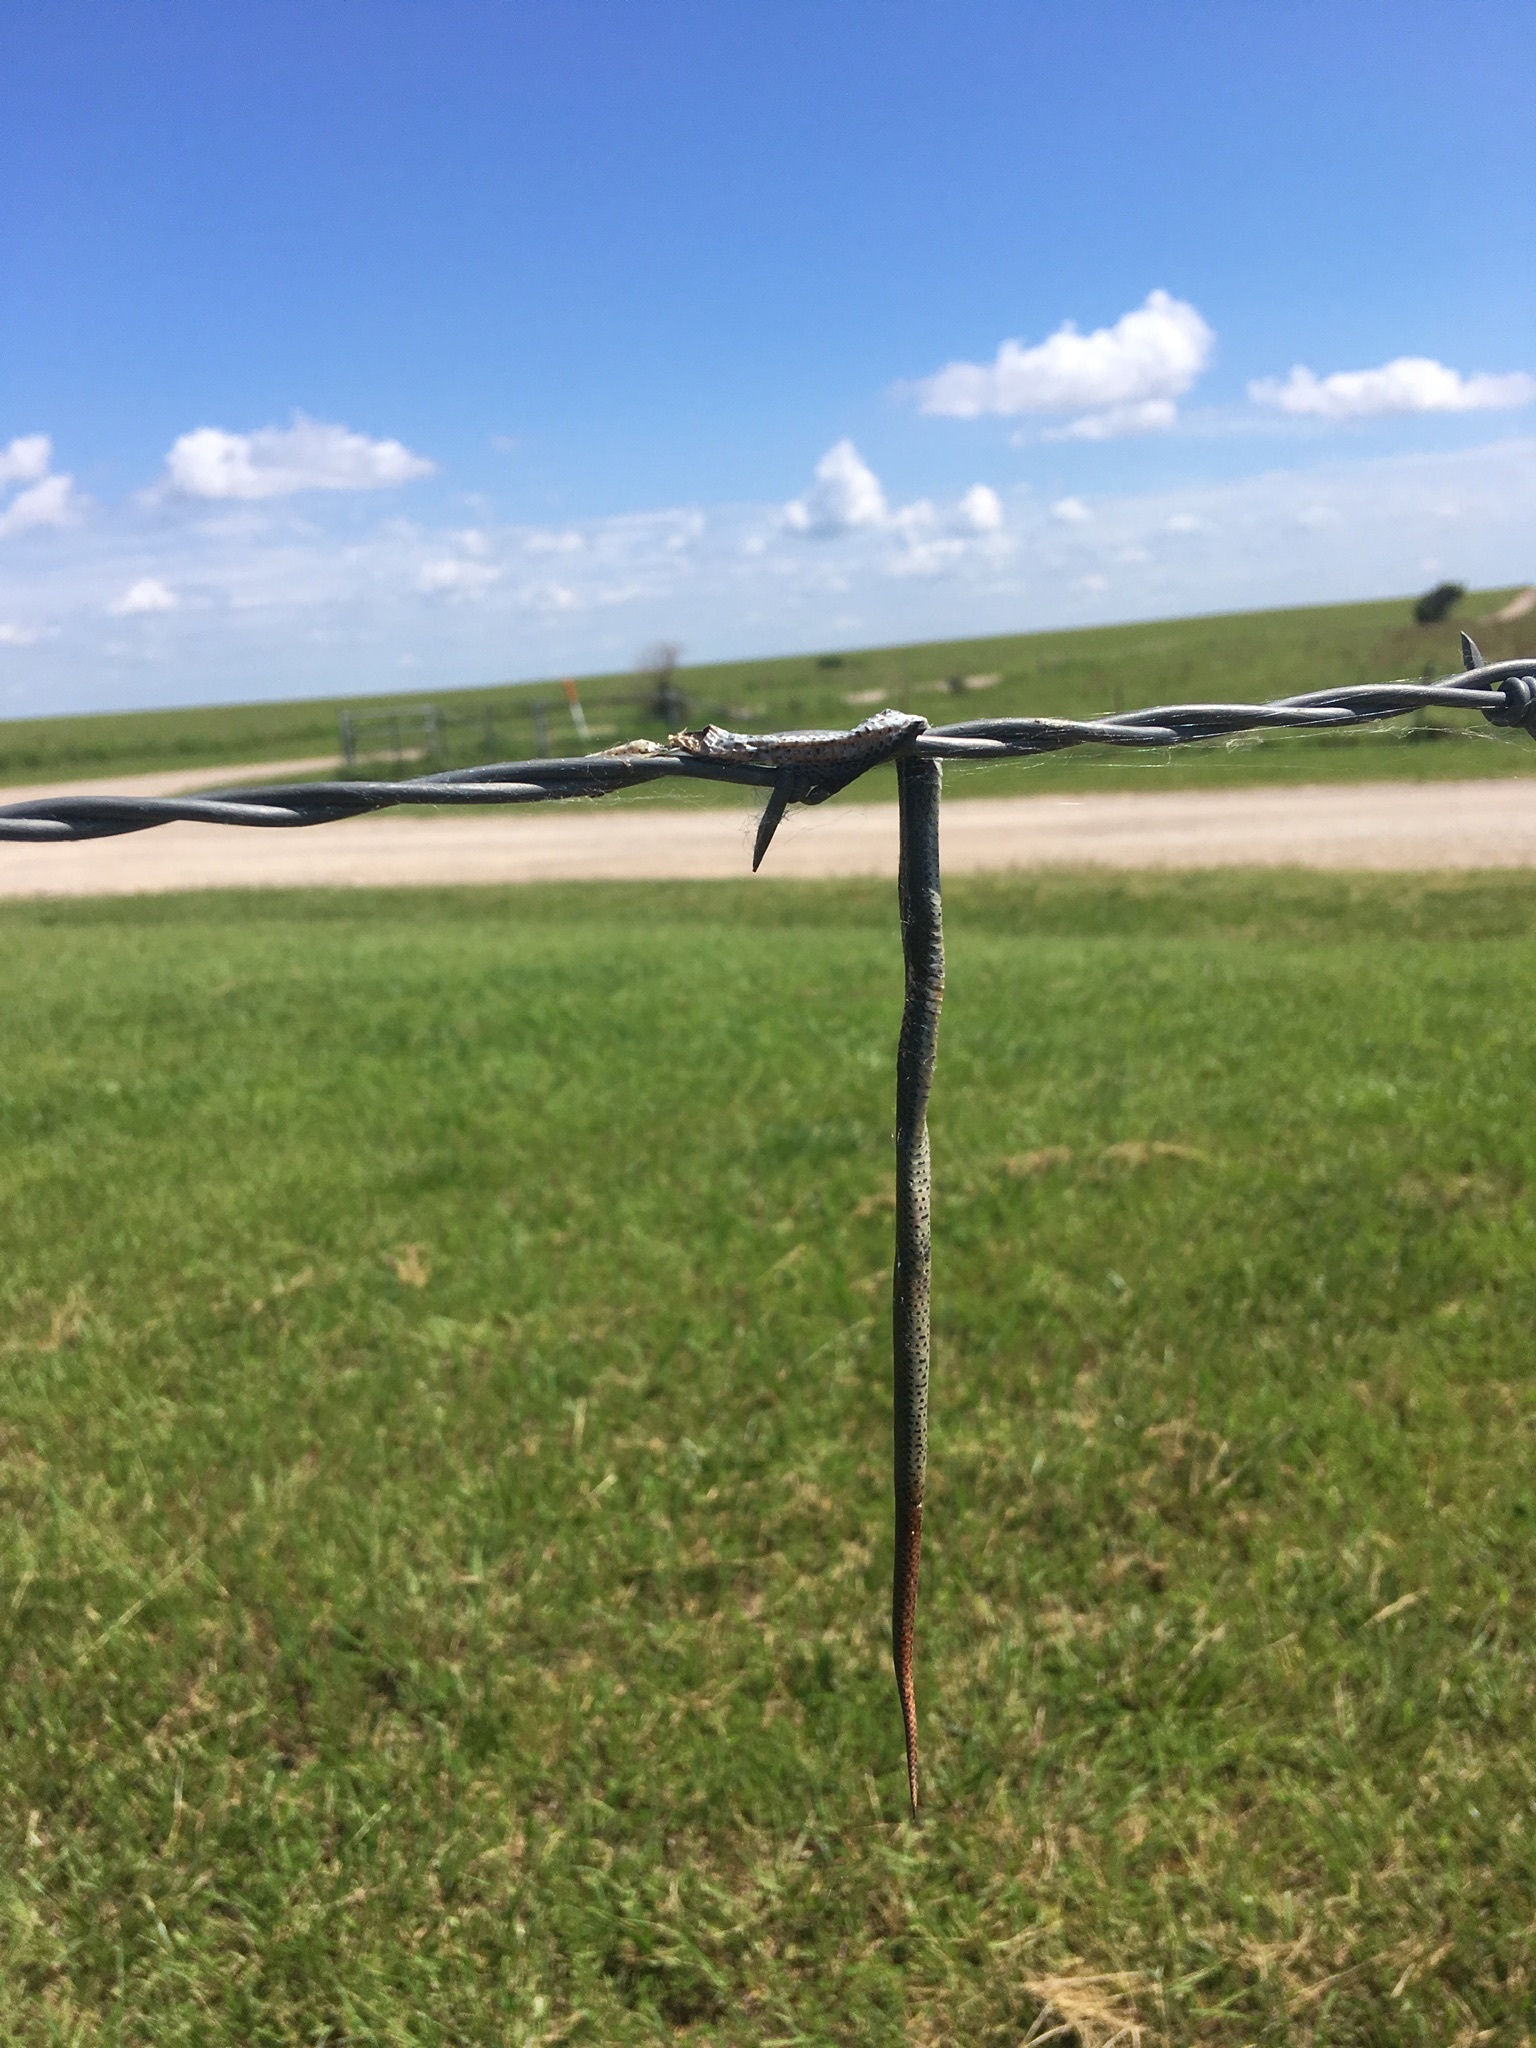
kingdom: Animalia
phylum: Chordata
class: Squamata
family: Colubridae
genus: Diadophis
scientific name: Diadophis punctatus
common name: Ringneck snake
